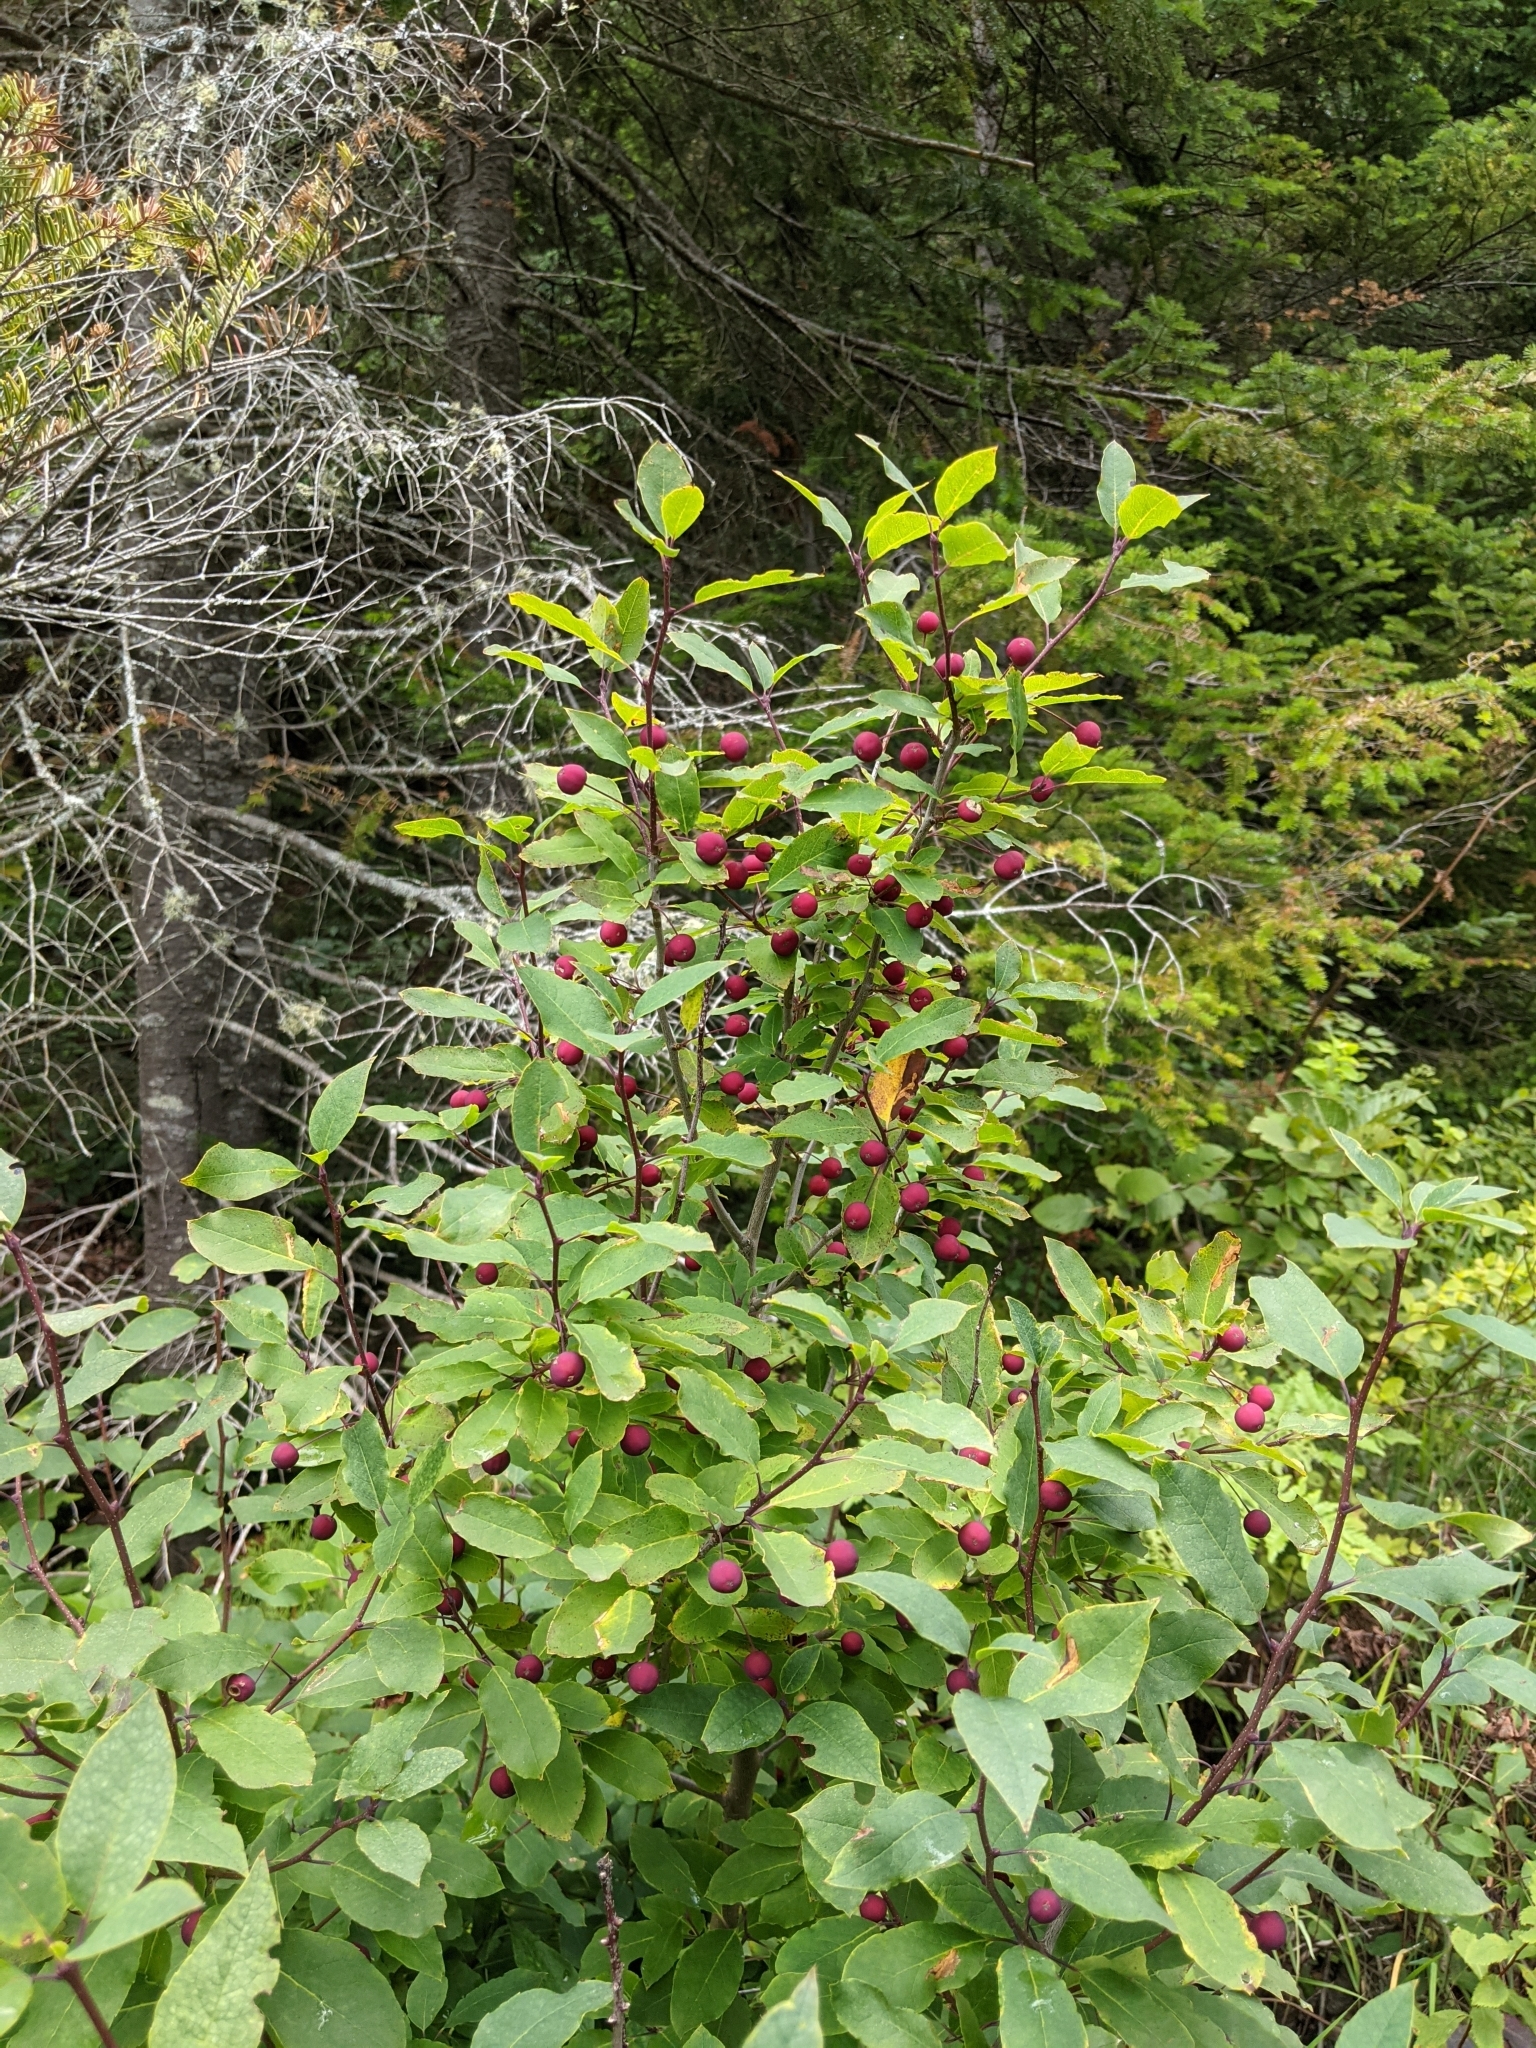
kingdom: Plantae
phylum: Tracheophyta
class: Magnoliopsida
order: Aquifoliales
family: Aquifoliaceae
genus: Ilex
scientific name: Ilex mucronata
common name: Catberry
